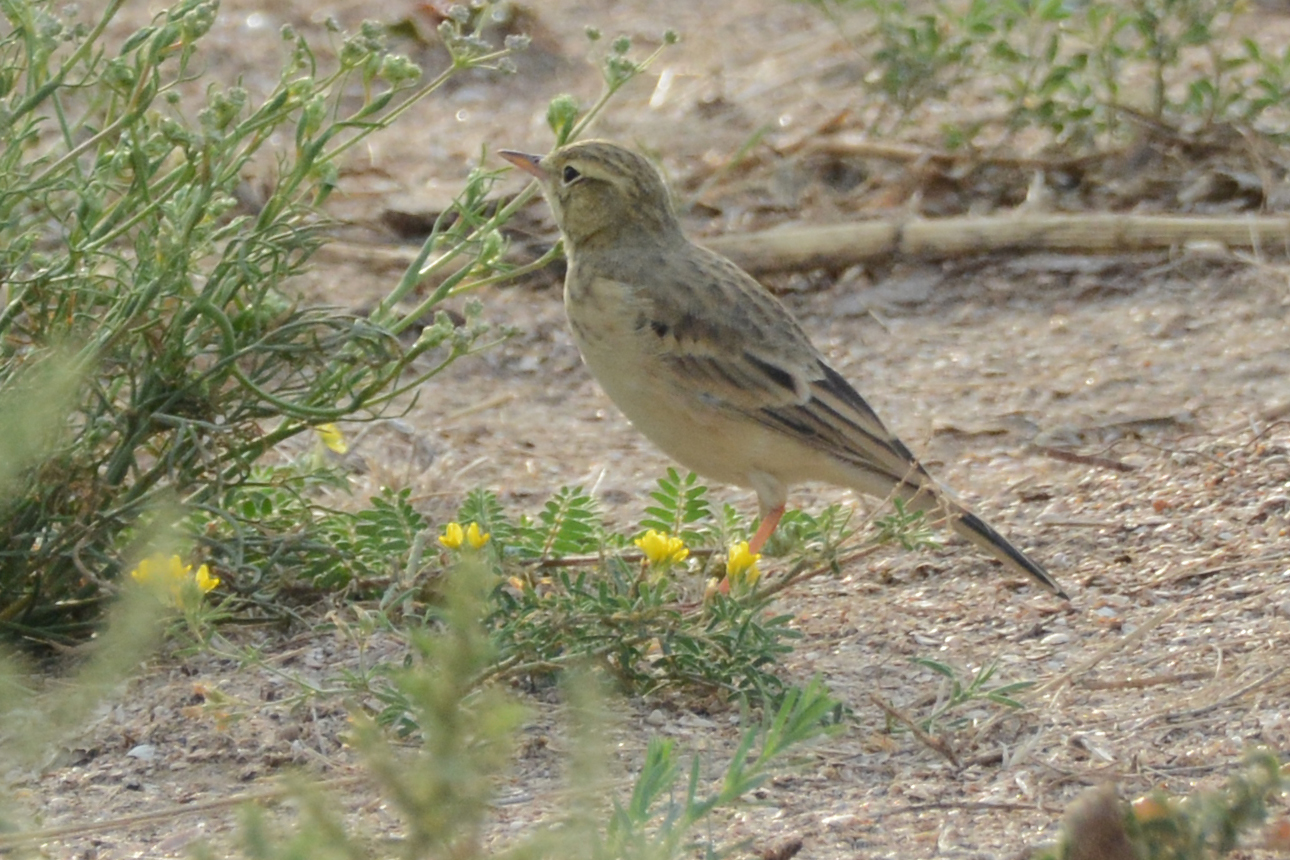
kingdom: Animalia
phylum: Chordata
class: Aves
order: Passeriformes
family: Motacillidae
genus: Anthus
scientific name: Anthus campestris
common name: Tawny pipit
